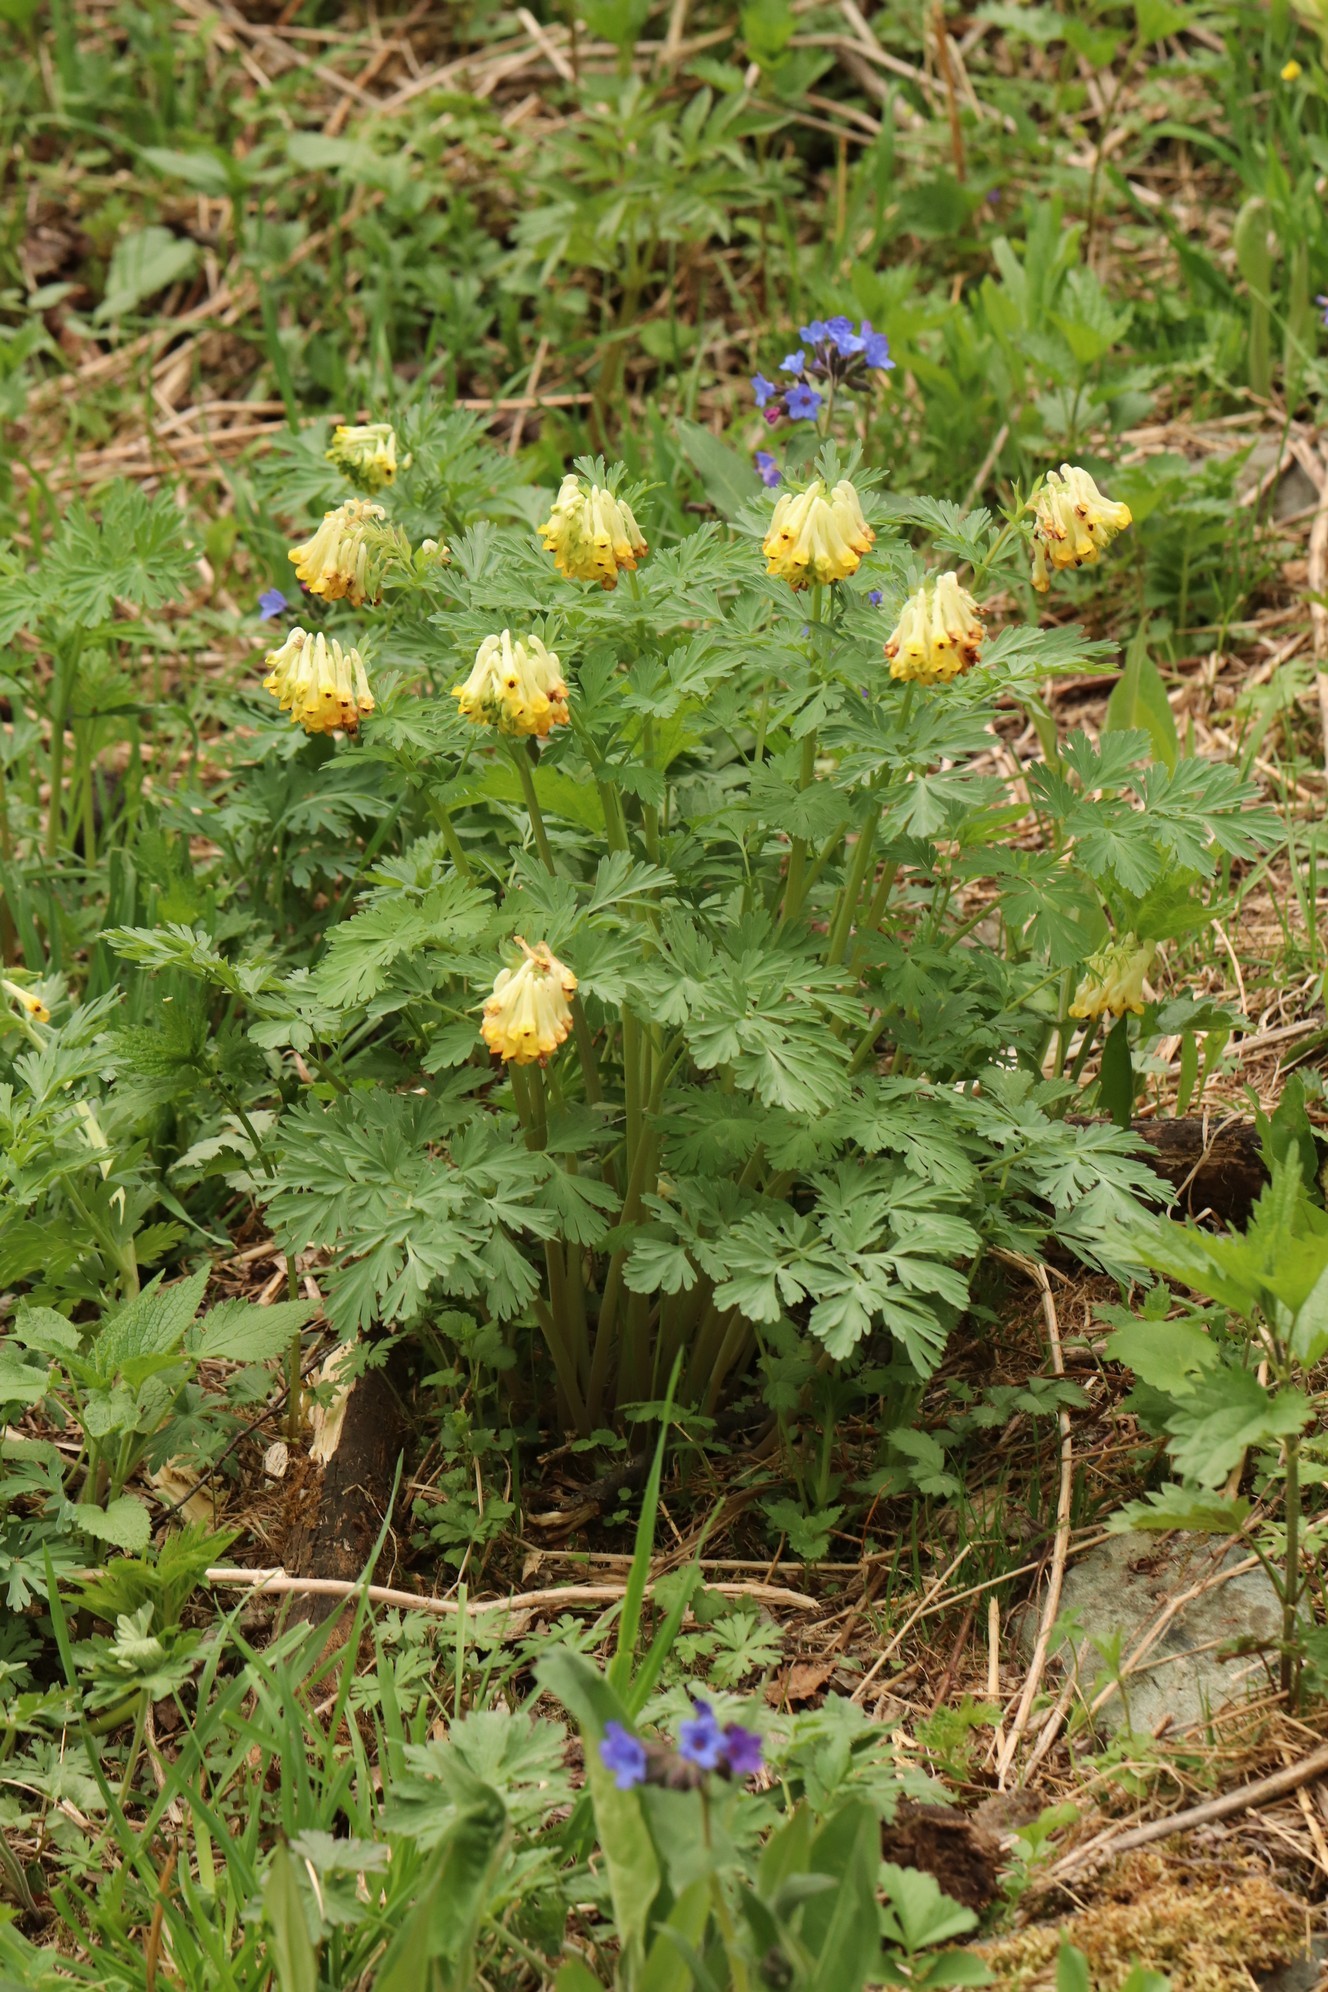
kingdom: Plantae
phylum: Tracheophyta
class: Magnoliopsida
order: Ranunculales
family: Papaveraceae
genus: Corydalis
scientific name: Corydalis nobilis
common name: Siberian corydalis
